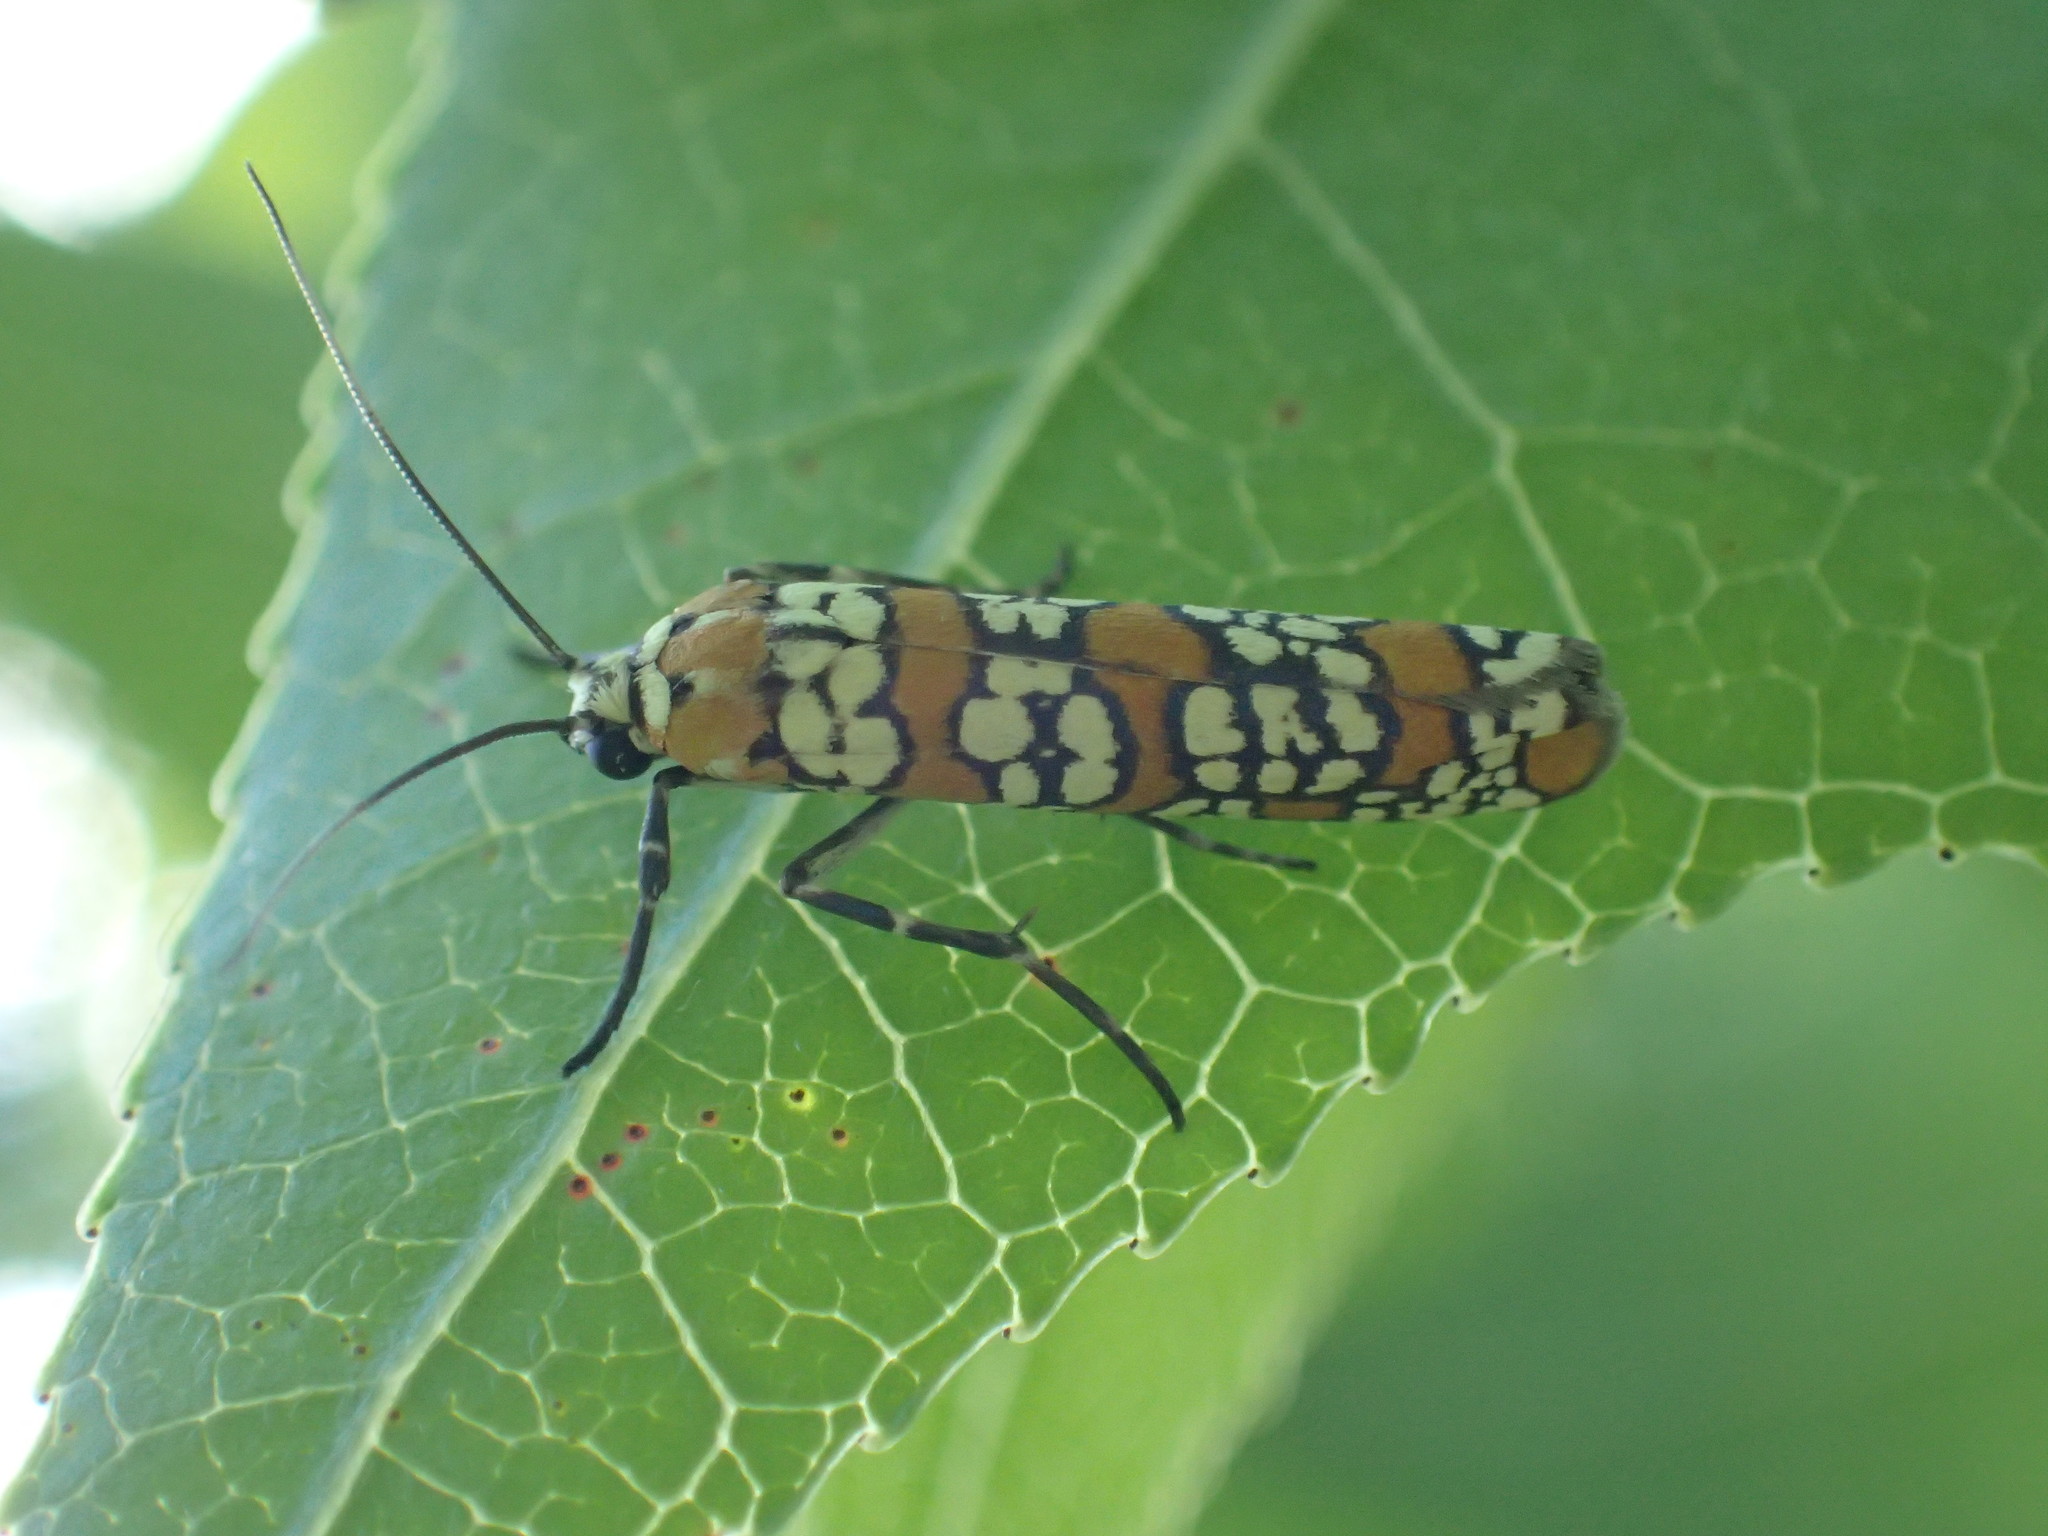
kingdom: Animalia
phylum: Arthropoda
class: Insecta
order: Lepidoptera
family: Attevidae
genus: Atteva
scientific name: Atteva punctella
